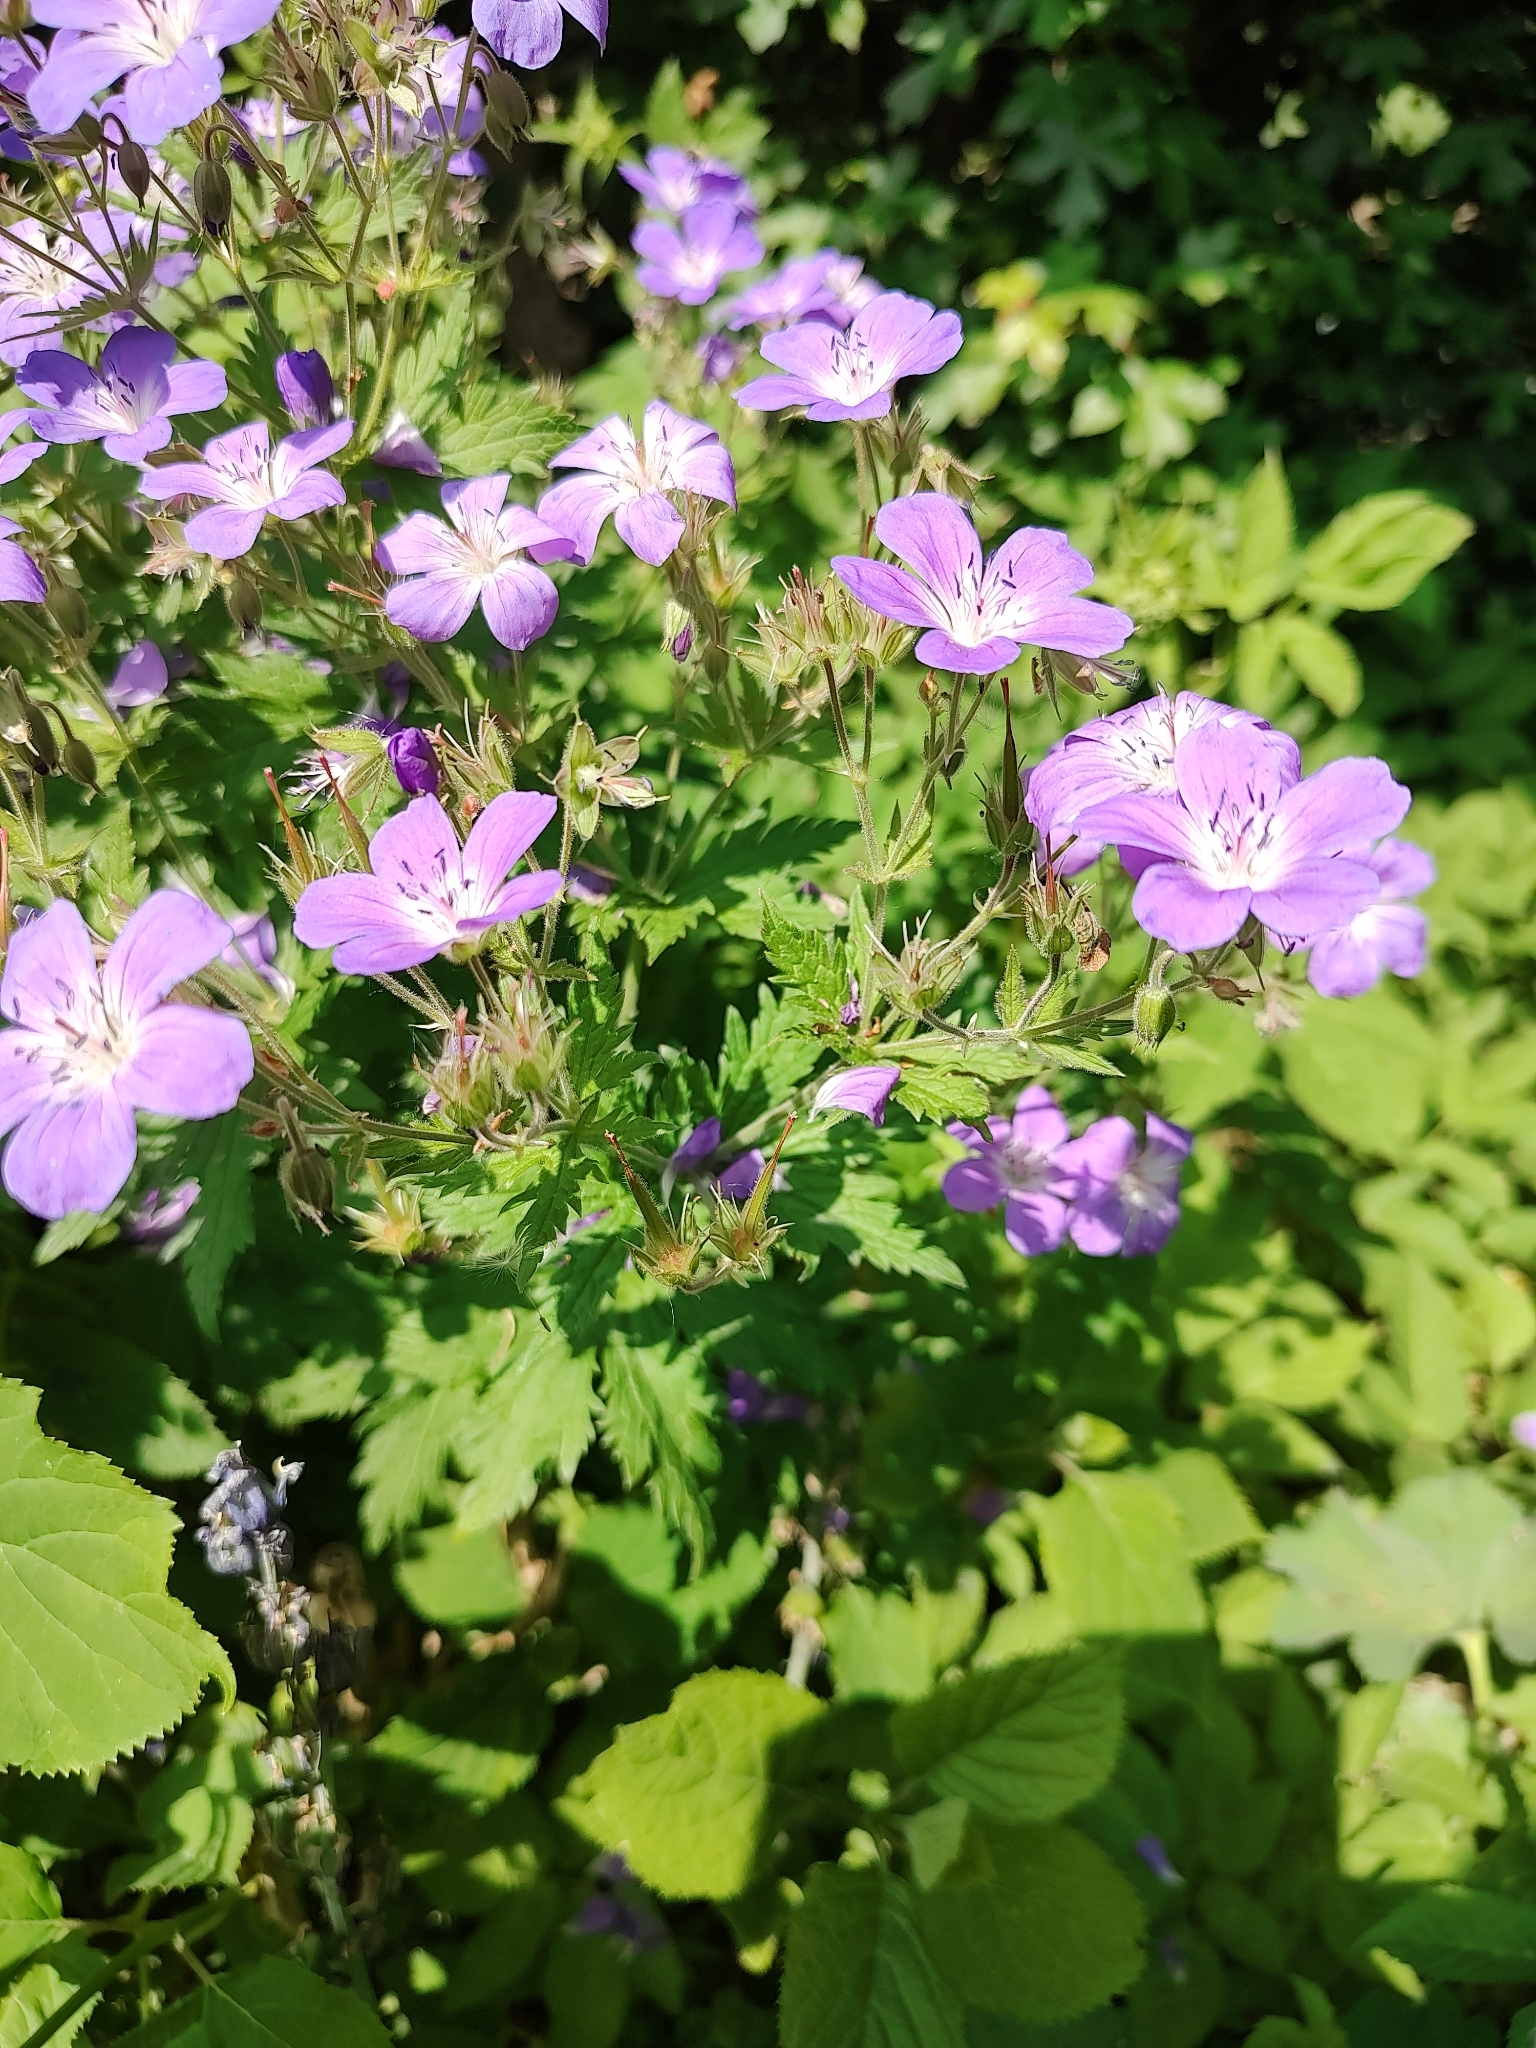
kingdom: Plantae
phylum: Tracheophyta
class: Magnoliopsida
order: Geraniales
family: Geraniaceae
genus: Geranium
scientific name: Geranium sylvaticum
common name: Wood crane's-bill
